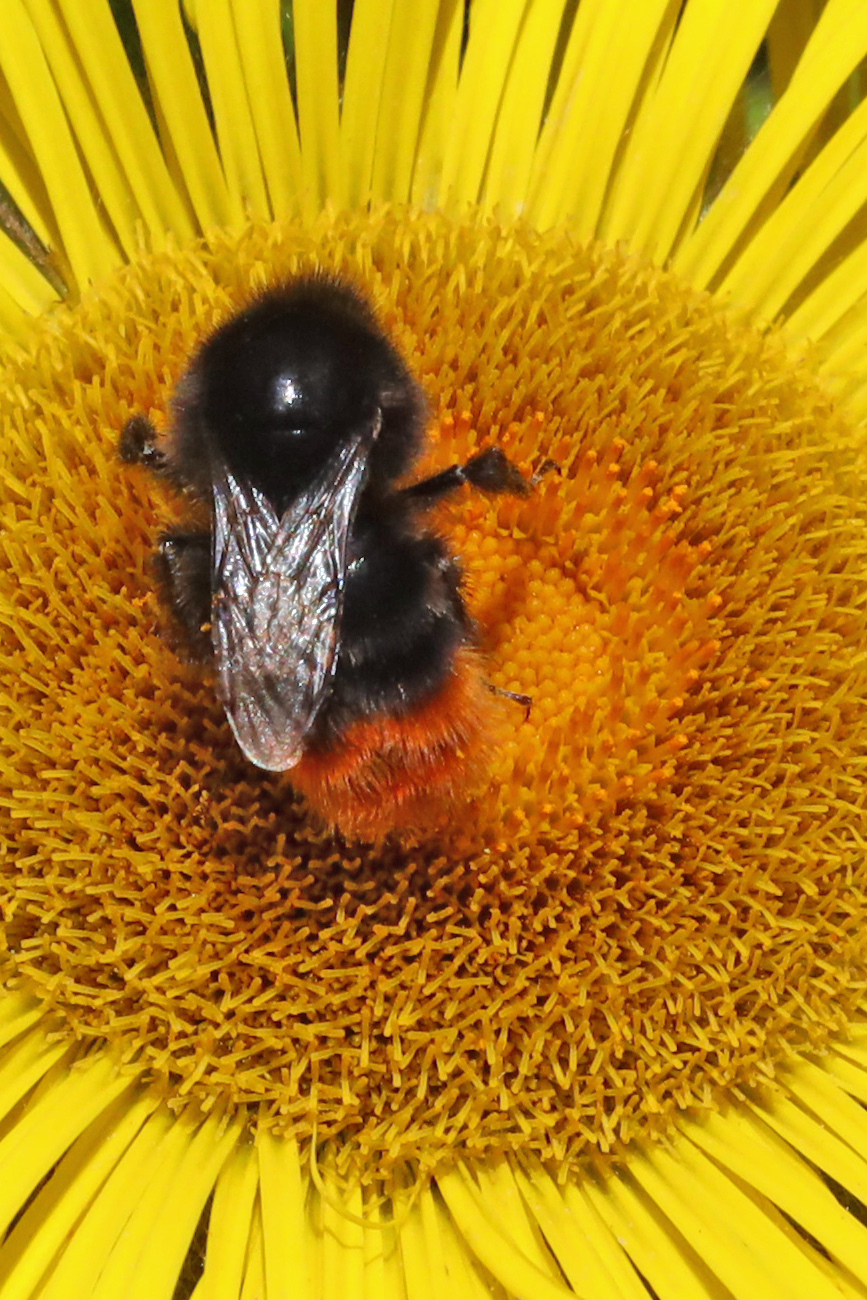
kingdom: Animalia
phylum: Arthropoda
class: Insecta
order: Hymenoptera
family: Apidae
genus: Bombus
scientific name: Bombus lapidarius
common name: Large red-tailed humble-bee
